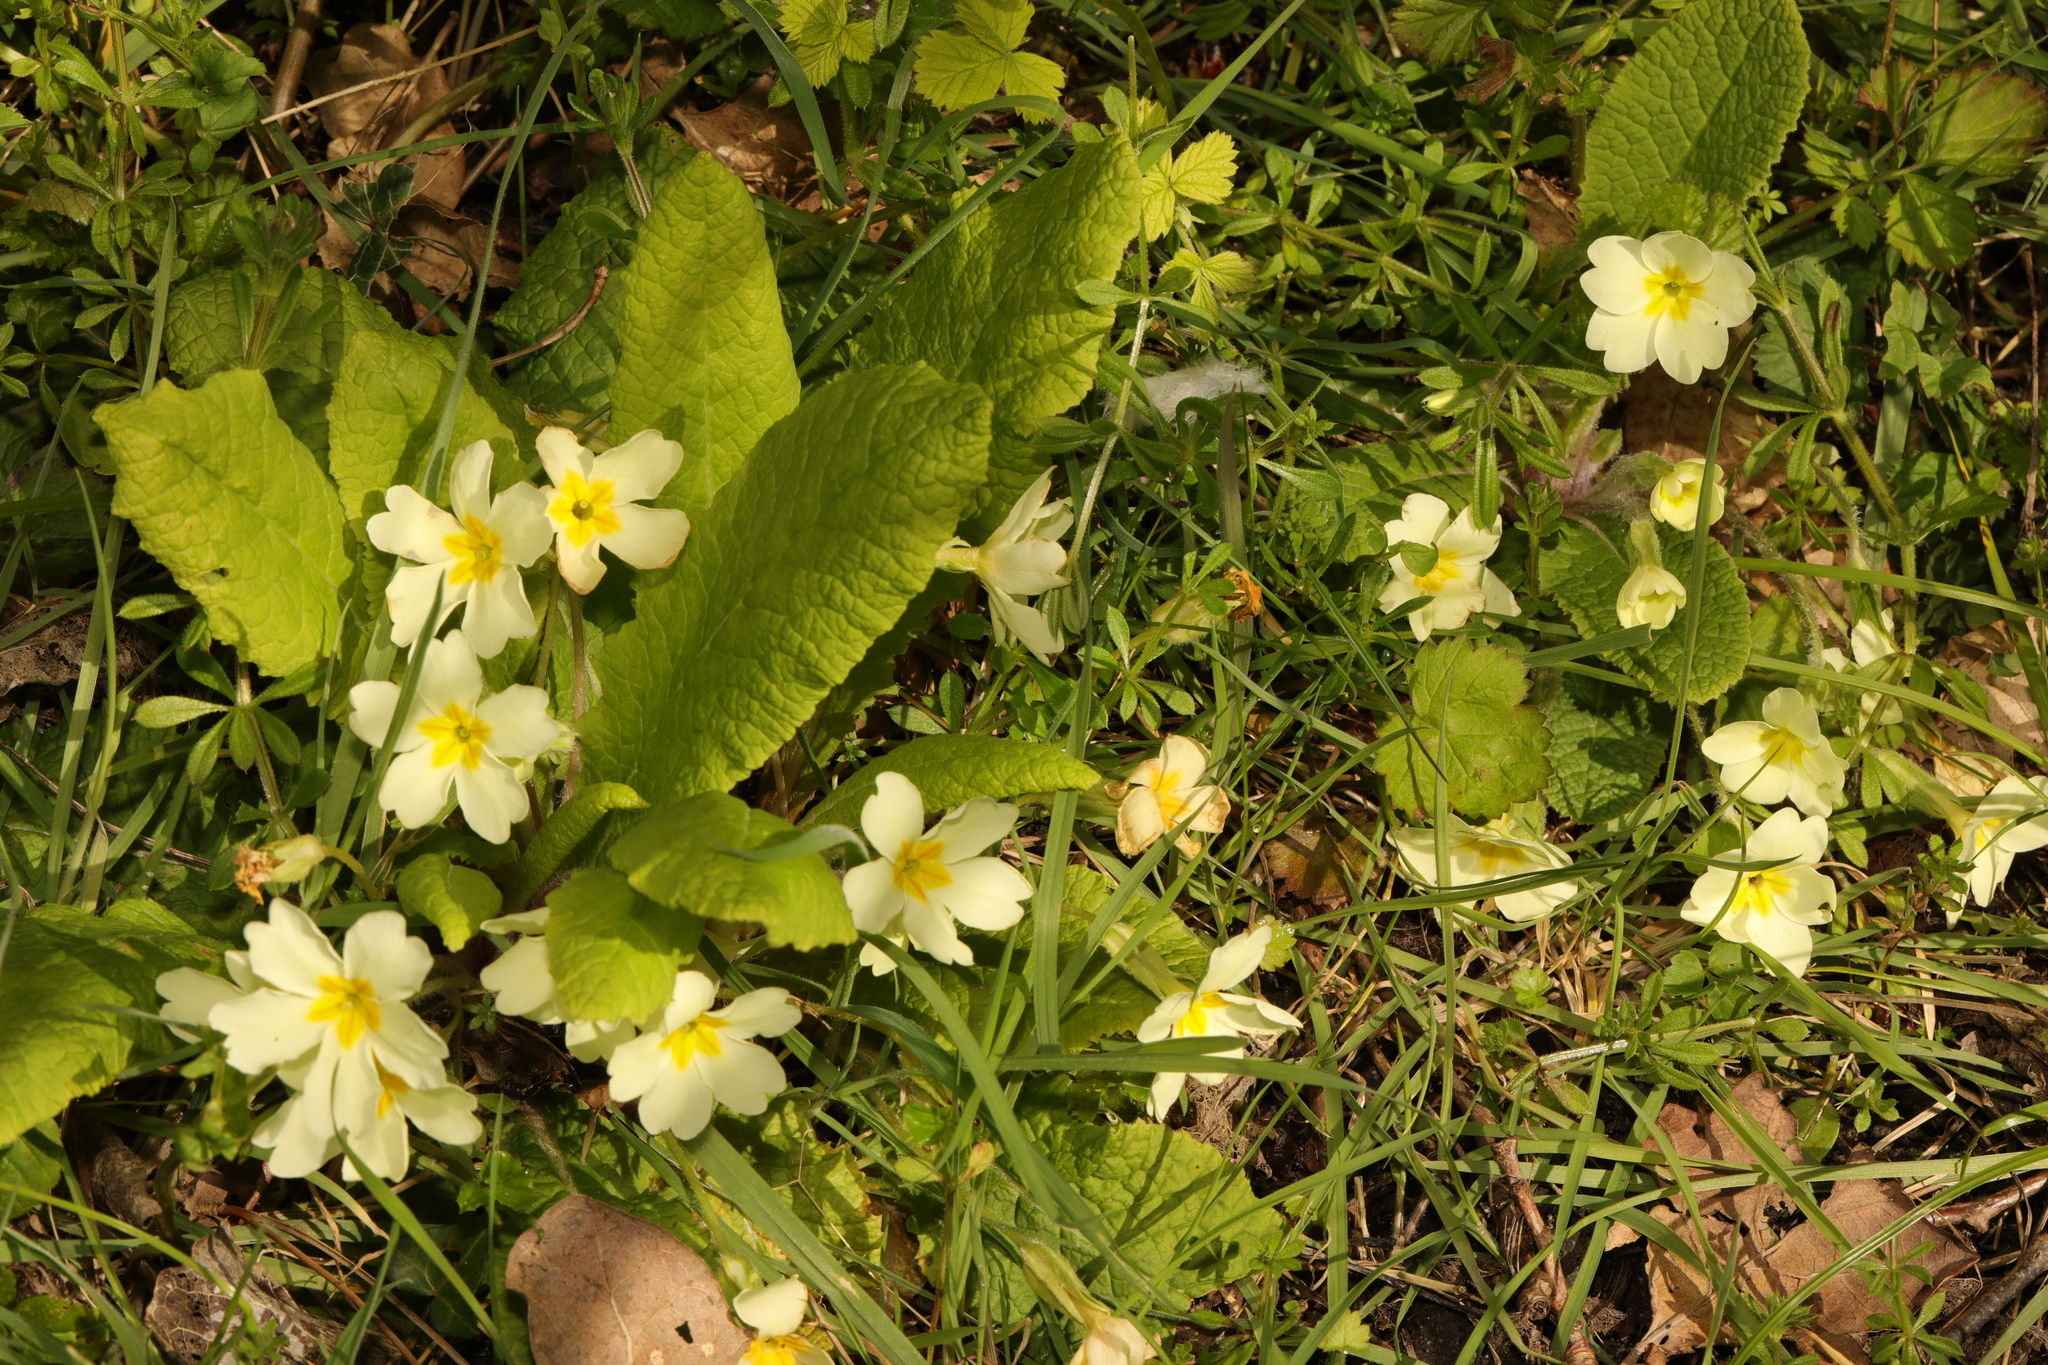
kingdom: Plantae
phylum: Tracheophyta
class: Magnoliopsida
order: Ericales
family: Primulaceae
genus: Primula
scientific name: Primula vulgaris
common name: Primrose
